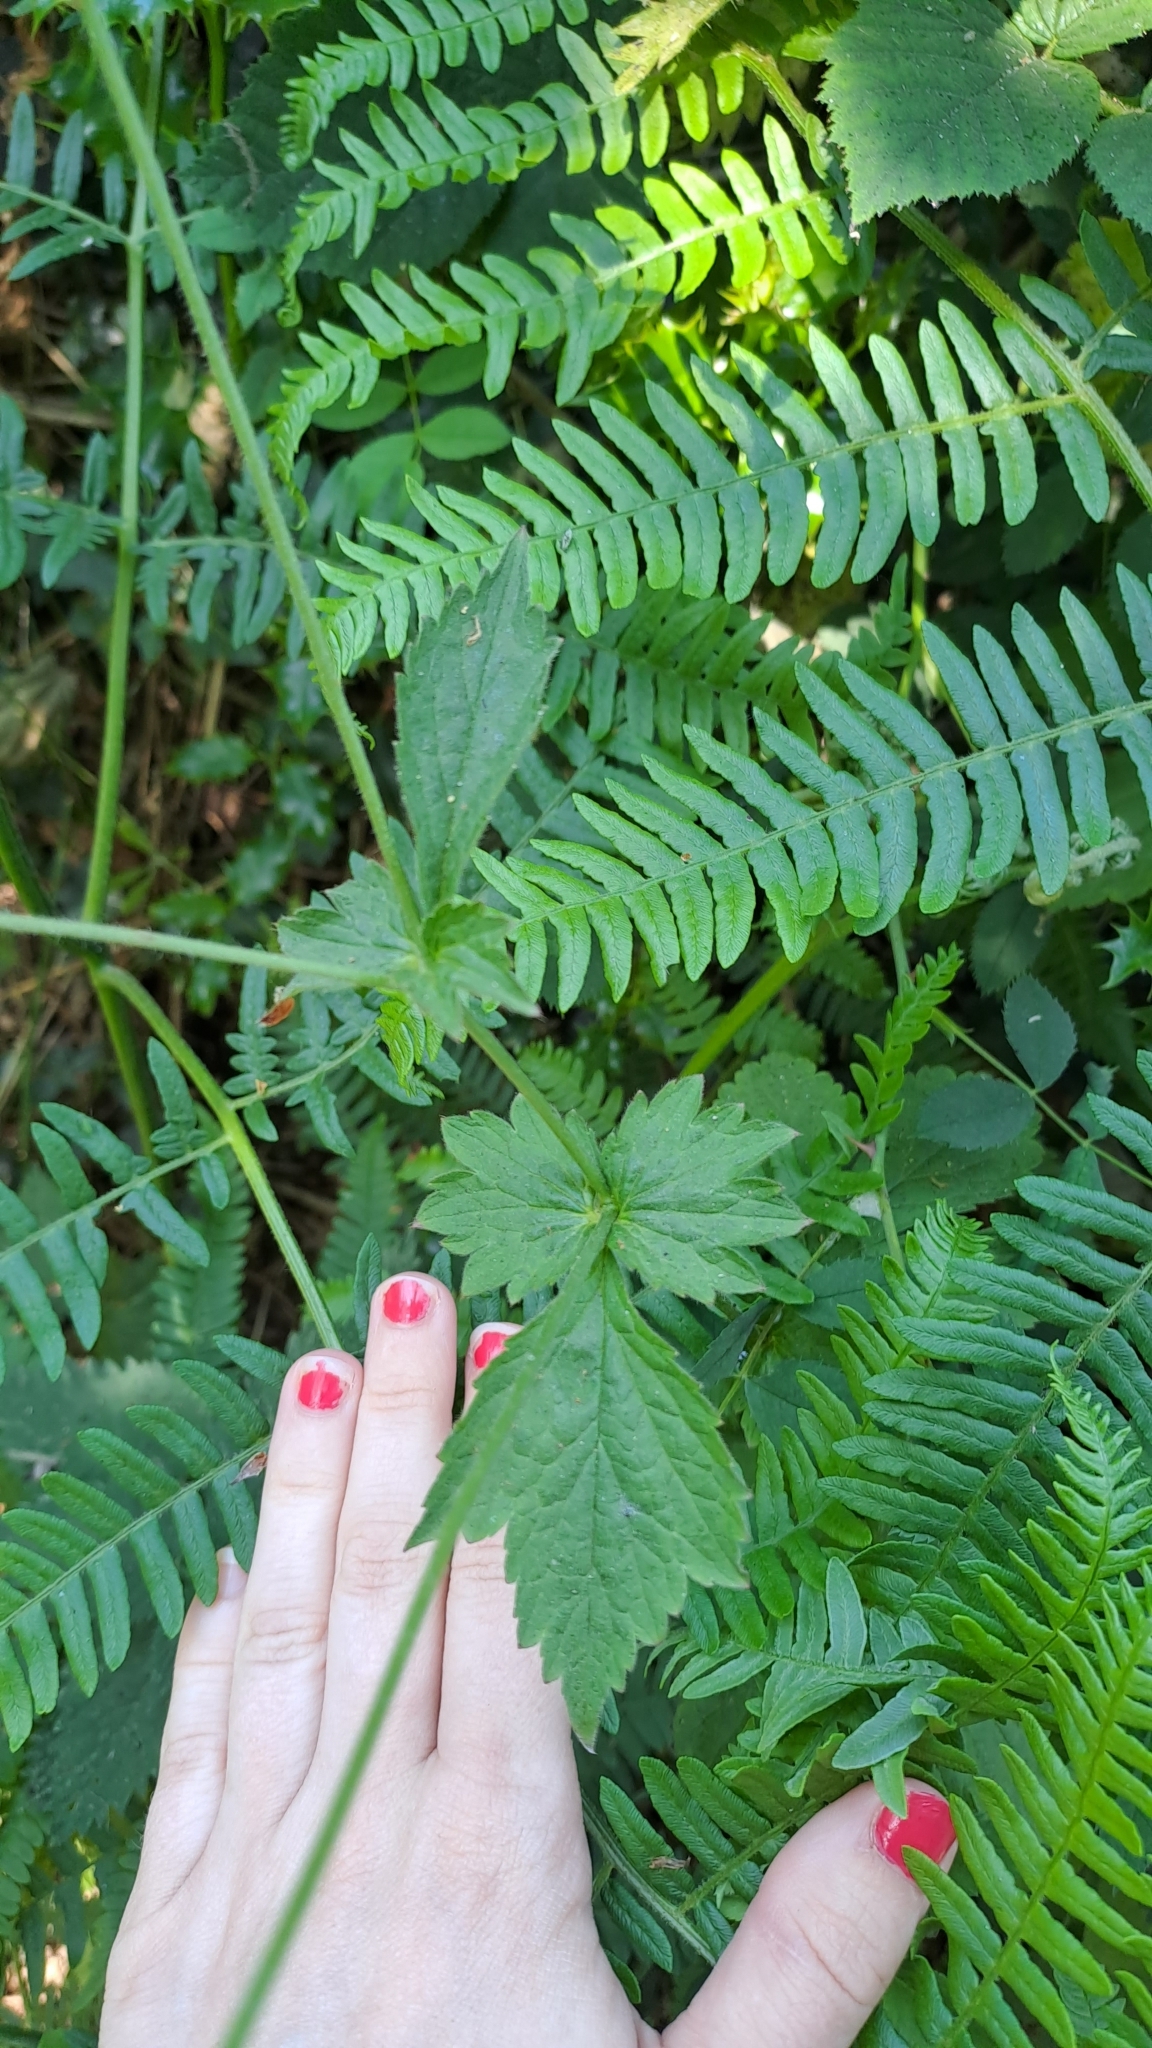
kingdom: Plantae
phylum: Tracheophyta
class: Magnoliopsida
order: Rosales
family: Rosaceae
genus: Geum
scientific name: Geum urbanum
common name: Wood avens
